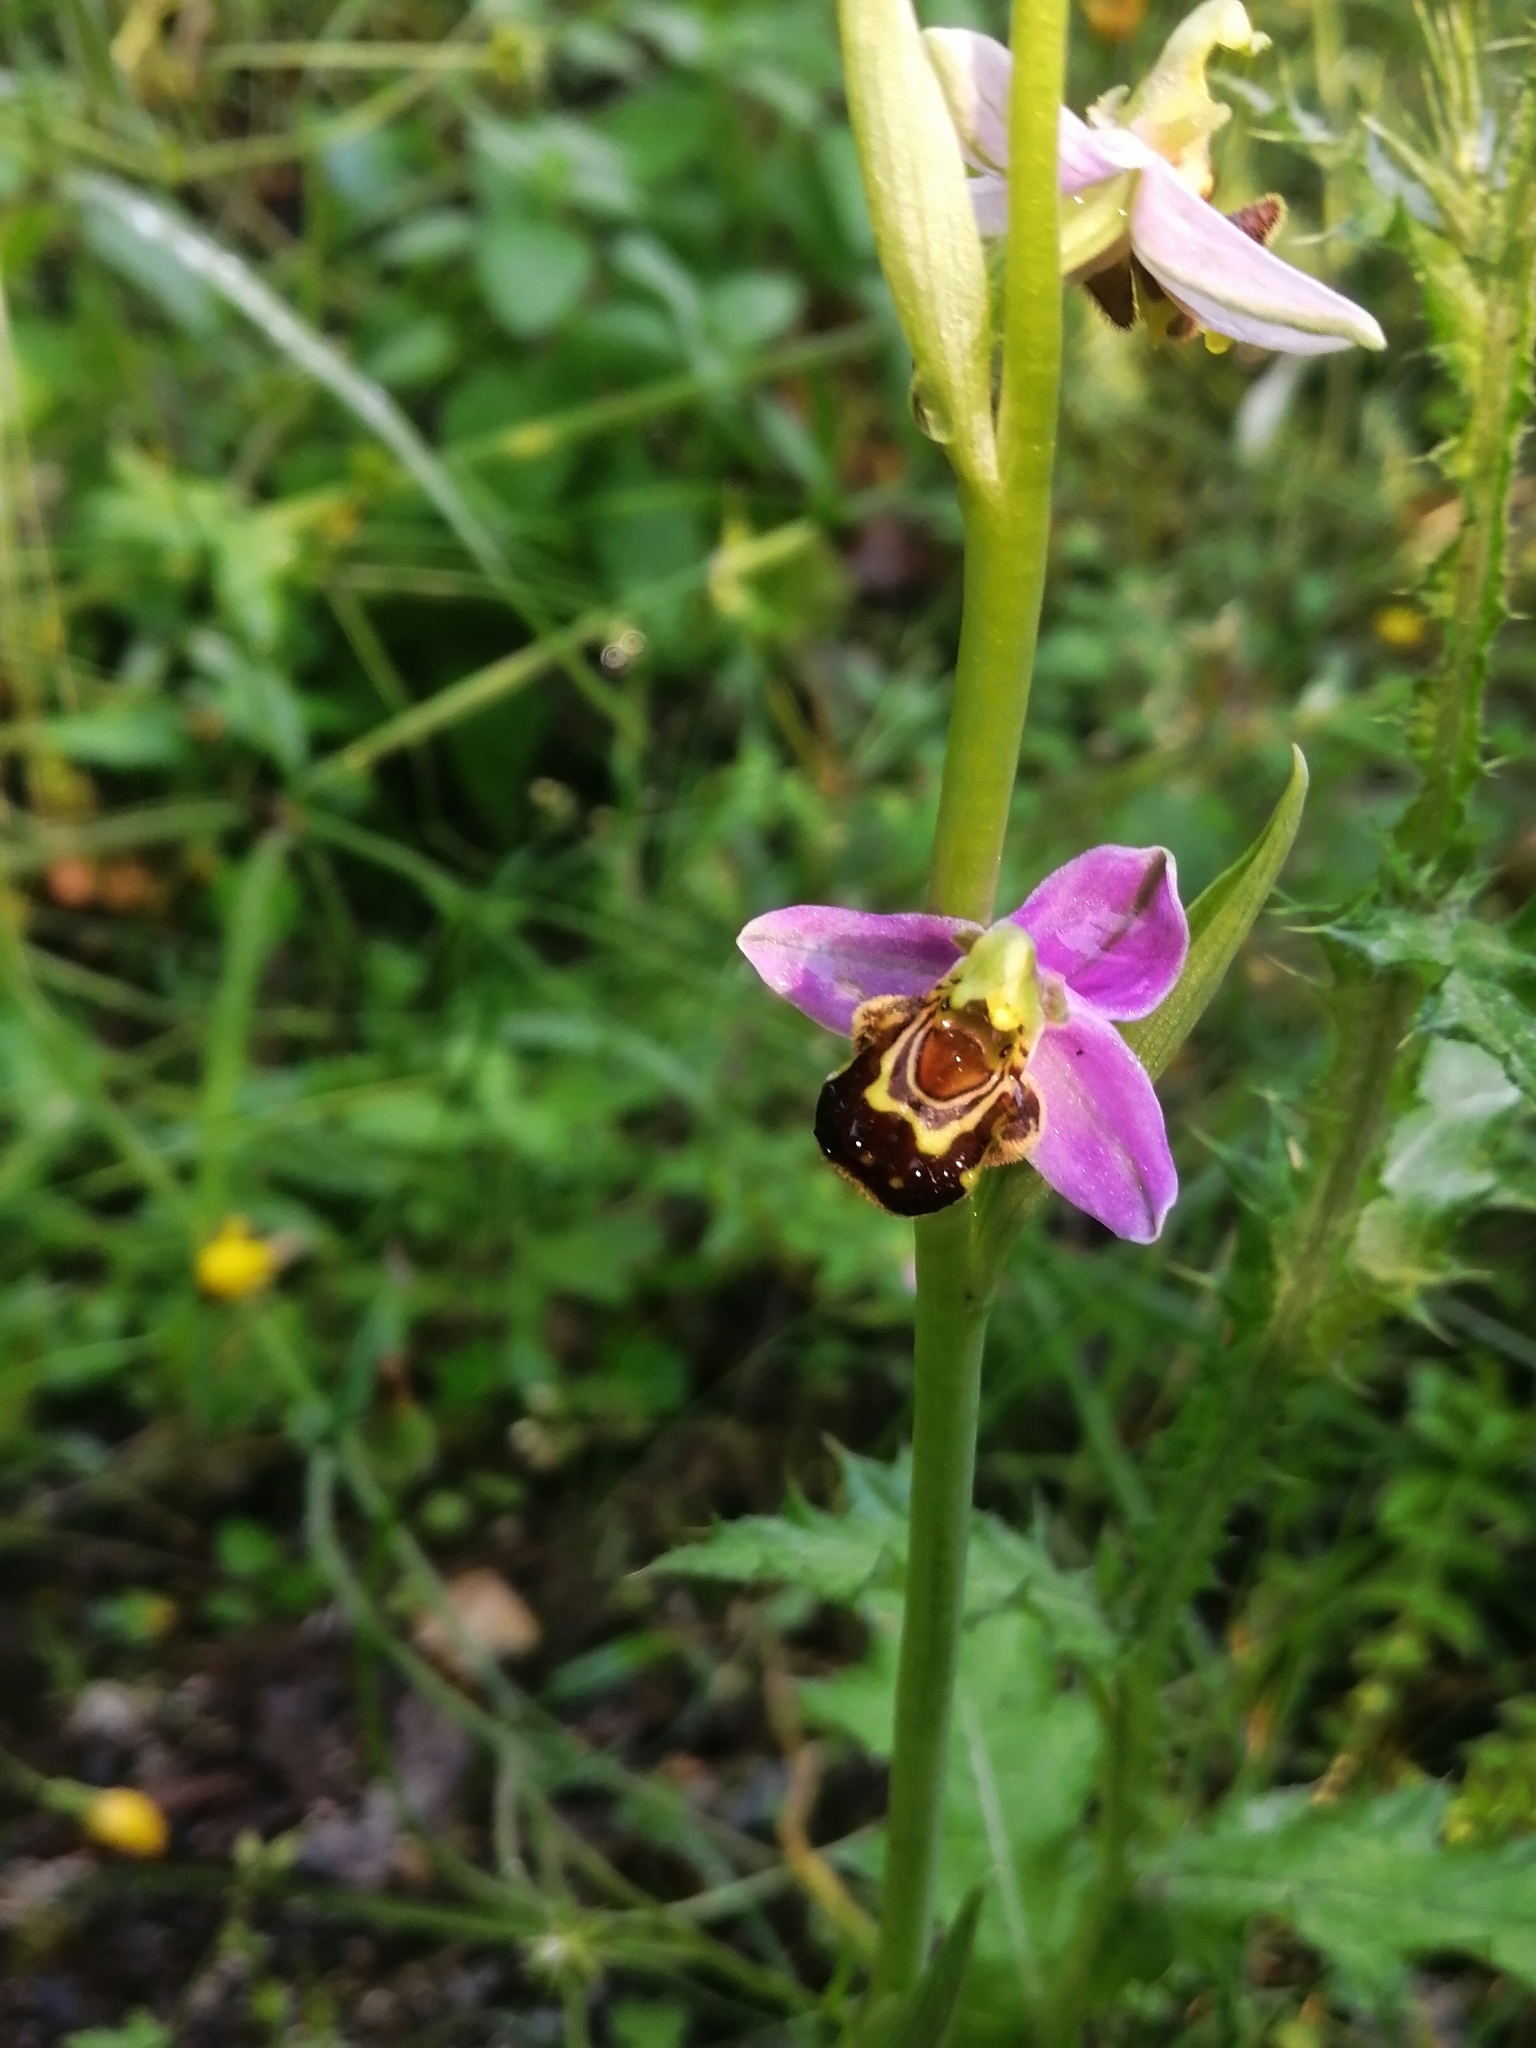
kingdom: Plantae
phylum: Tracheophyta
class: Liliopsida
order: Asparagales
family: Orchidaceae
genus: Ophrys
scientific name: Ophrys apifera
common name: Bee orchid
